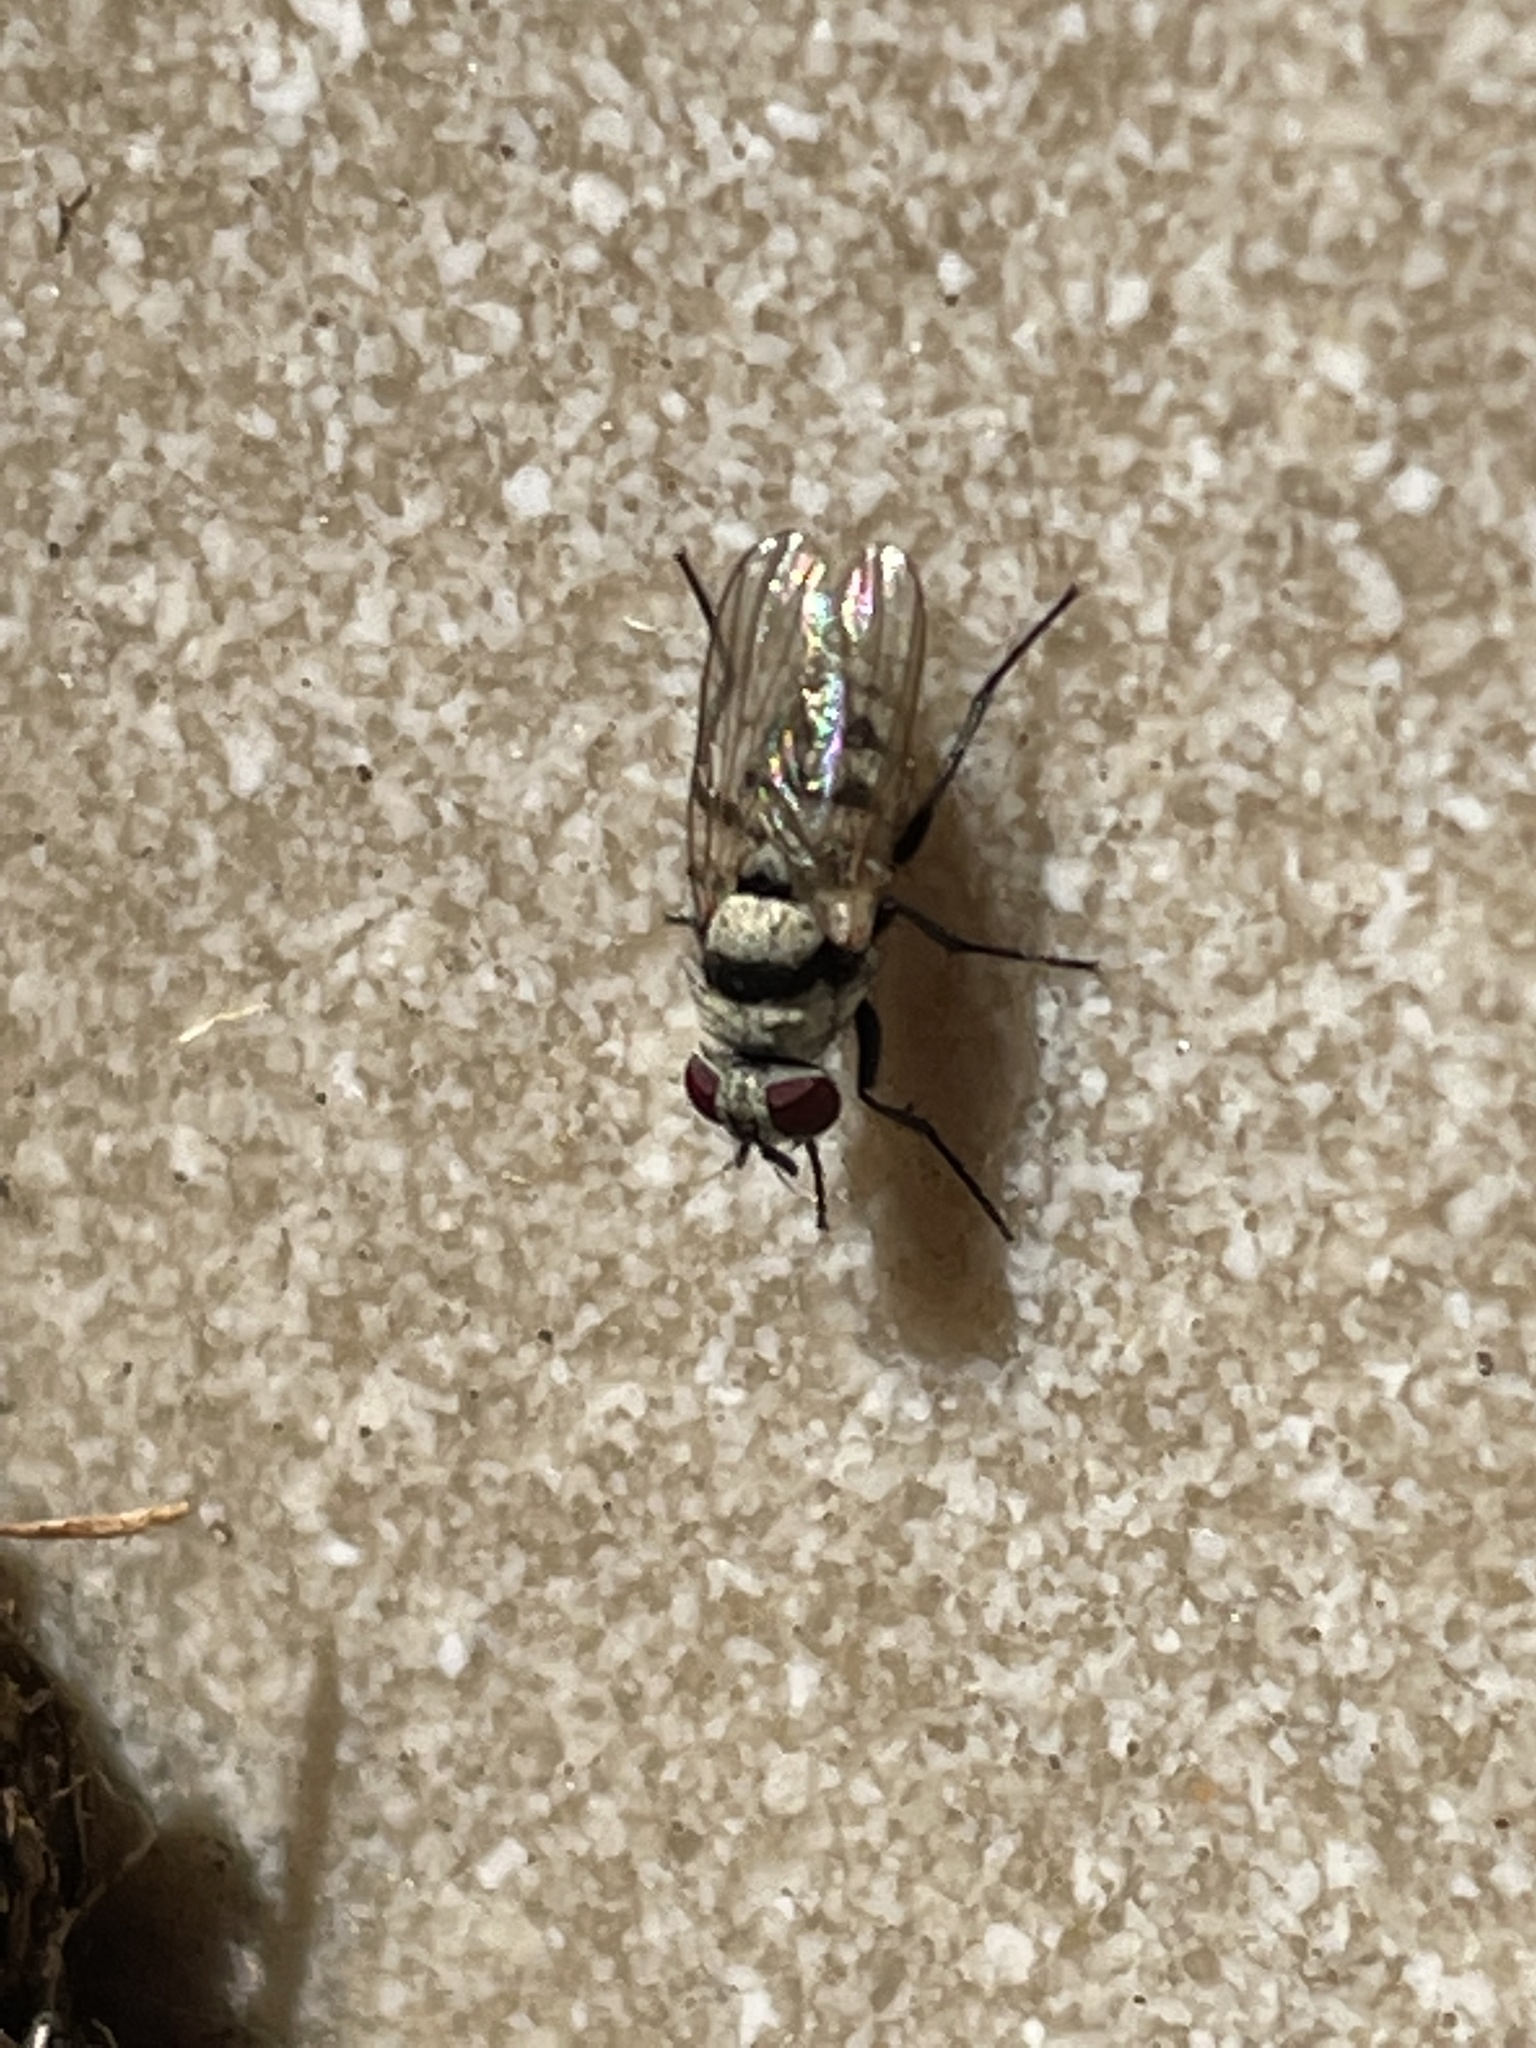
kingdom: Animalia
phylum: Arthropoda
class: Insecta
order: Diptera
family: Anthomyiidae
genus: Anthomyia
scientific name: Anthomyia illocata
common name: Fly
